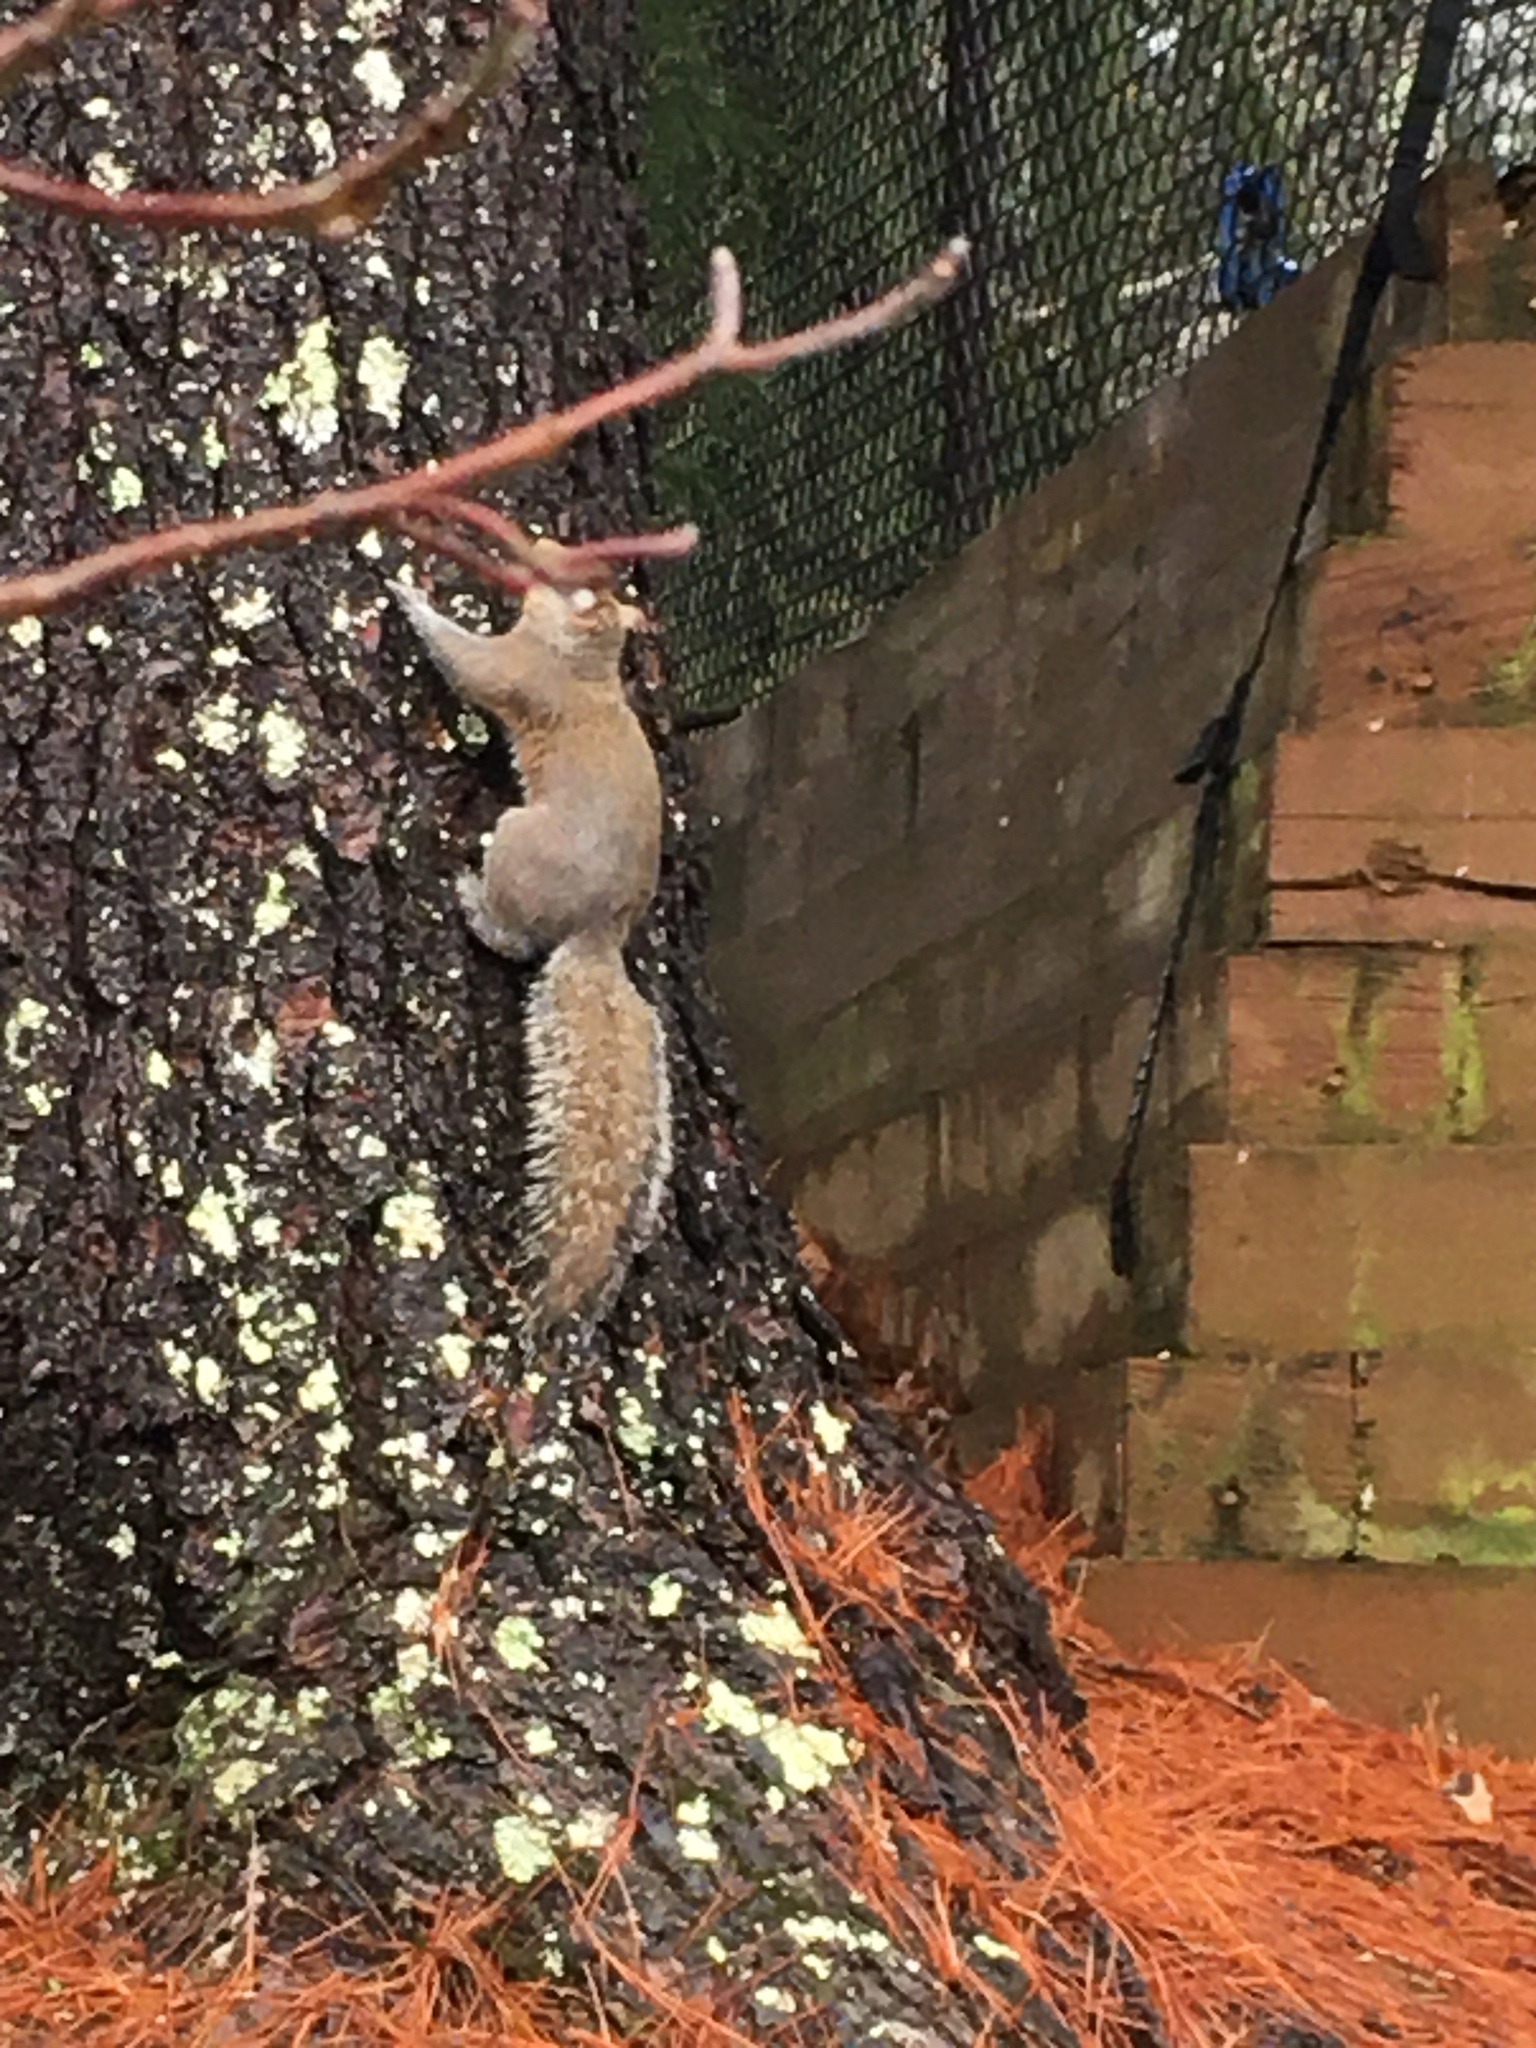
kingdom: Animalia
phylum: Chordata
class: Mammalia
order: Rodentia
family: Sciuridae
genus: Sciurus
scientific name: Sciurus carolinensis
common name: Eastern gray squirrel
